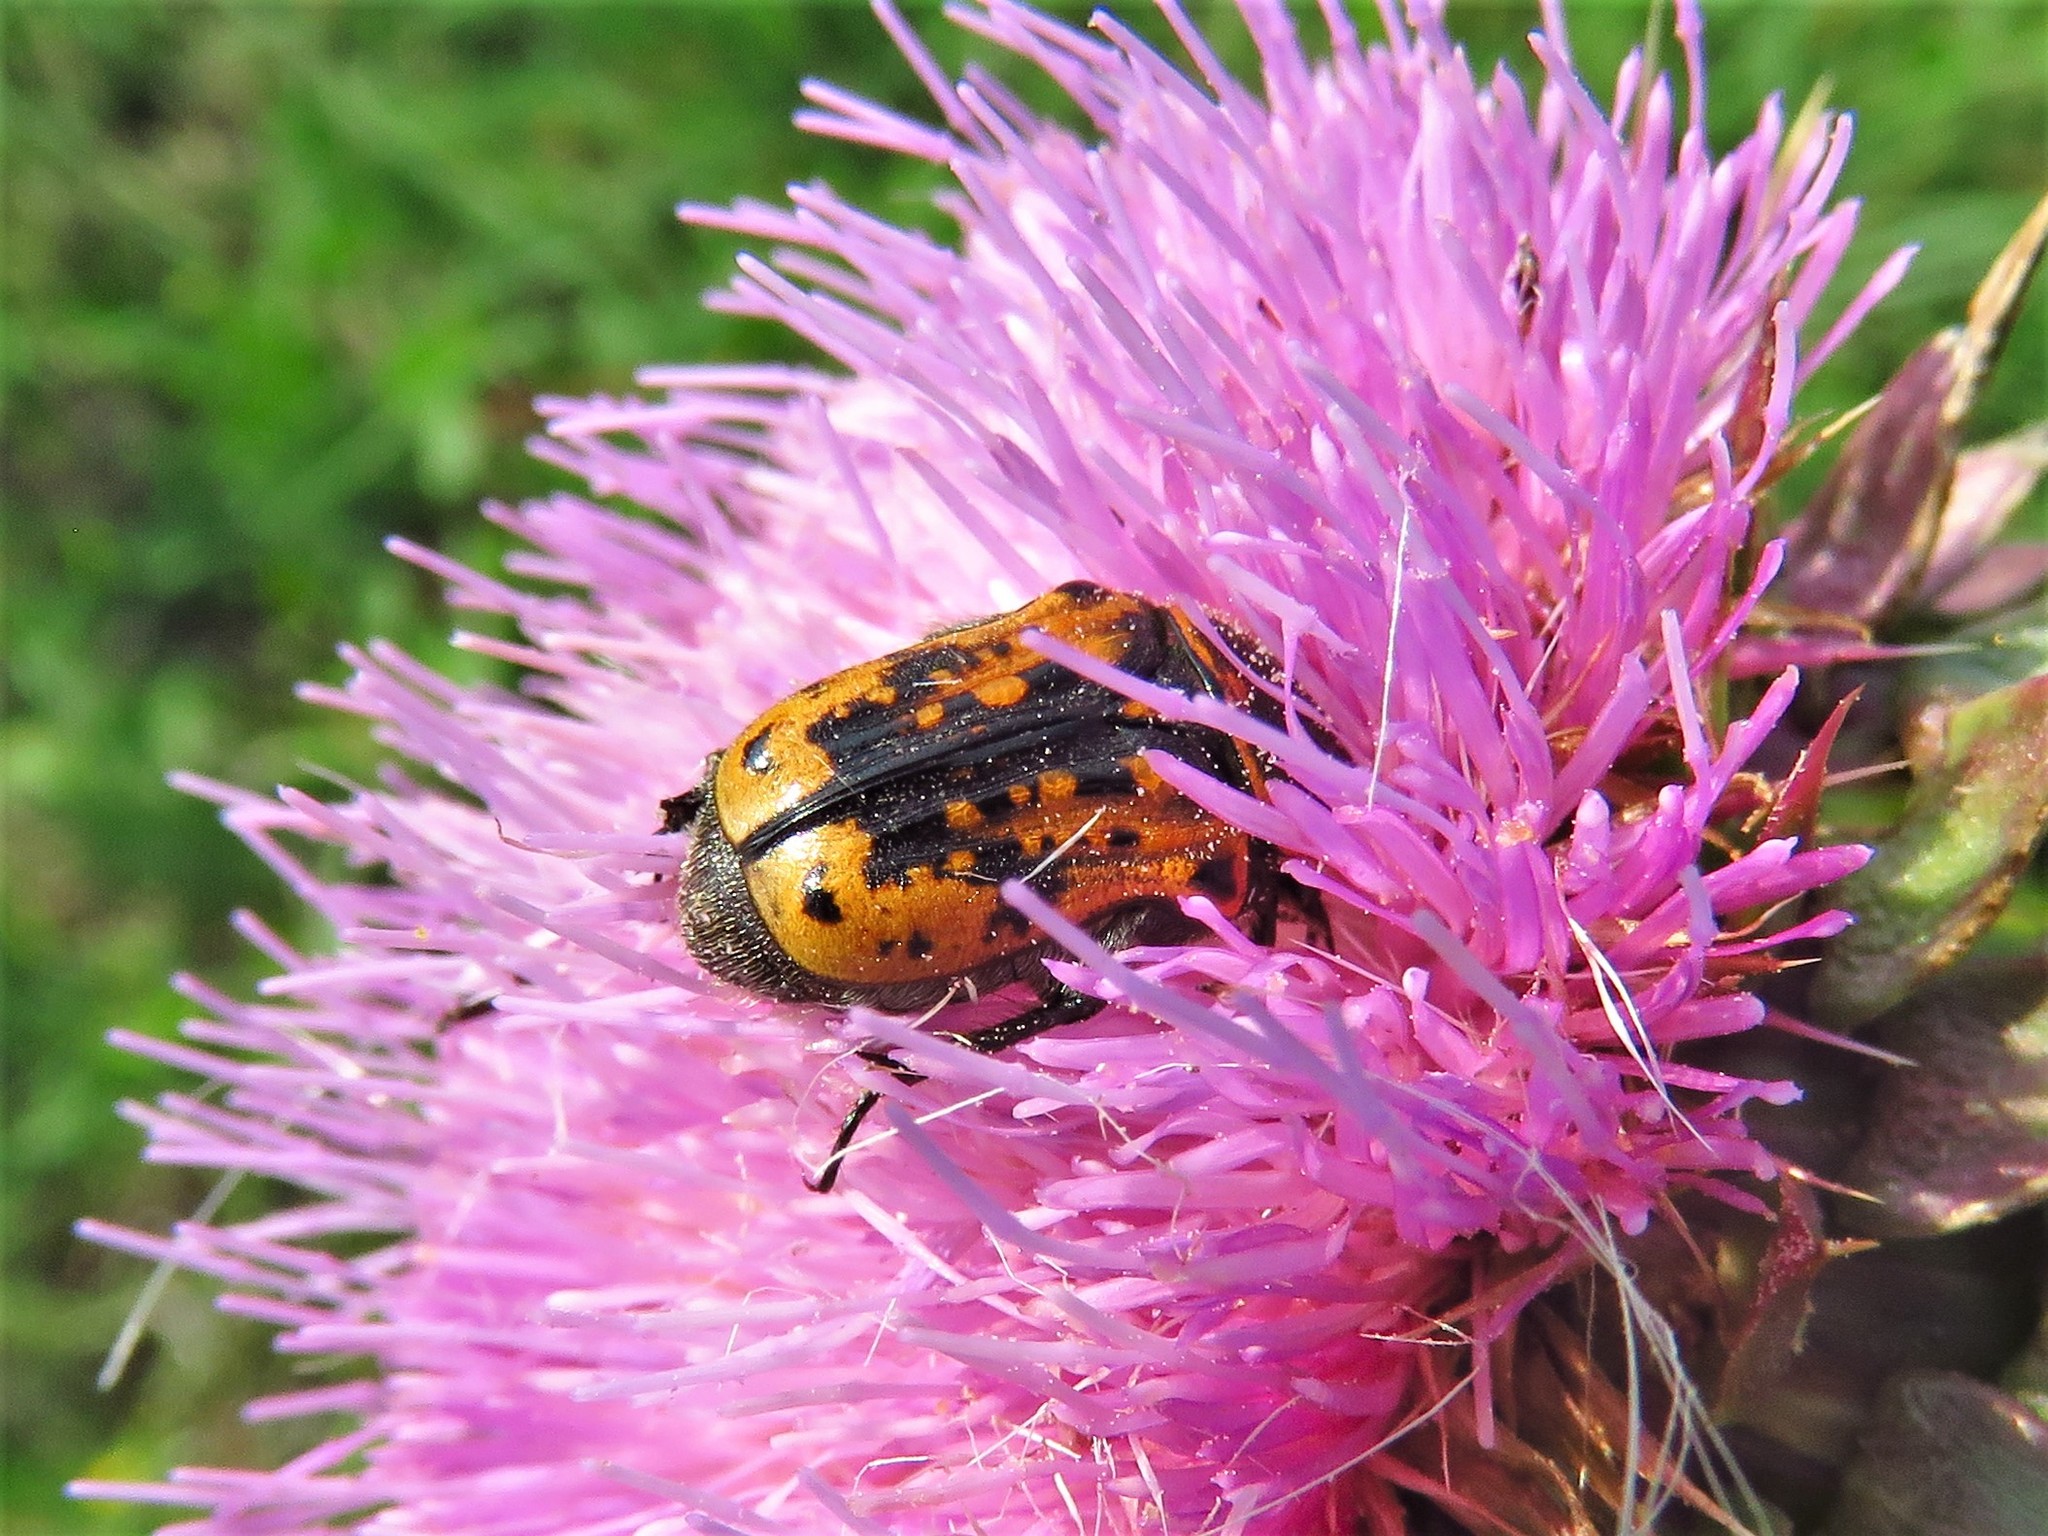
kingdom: Animalia
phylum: Arthropoda
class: Insecta
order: Coleoptera
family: Scarabaeidae
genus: Euphoria
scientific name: Euphoria kernii
